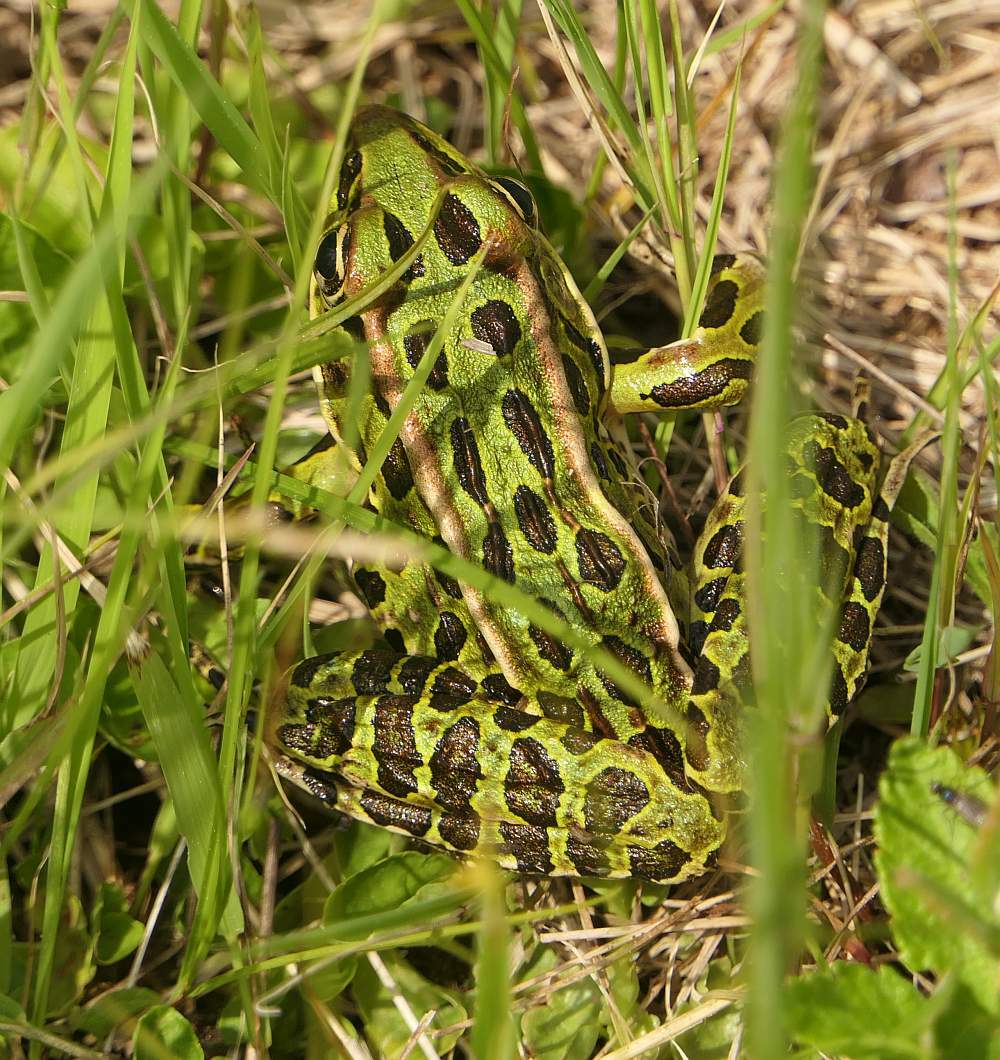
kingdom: Animalia
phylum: Chordata
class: Amphibia
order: Anura
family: Ranidae
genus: Lithobates
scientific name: Lithobates pipiens
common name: Northern leopard frog
